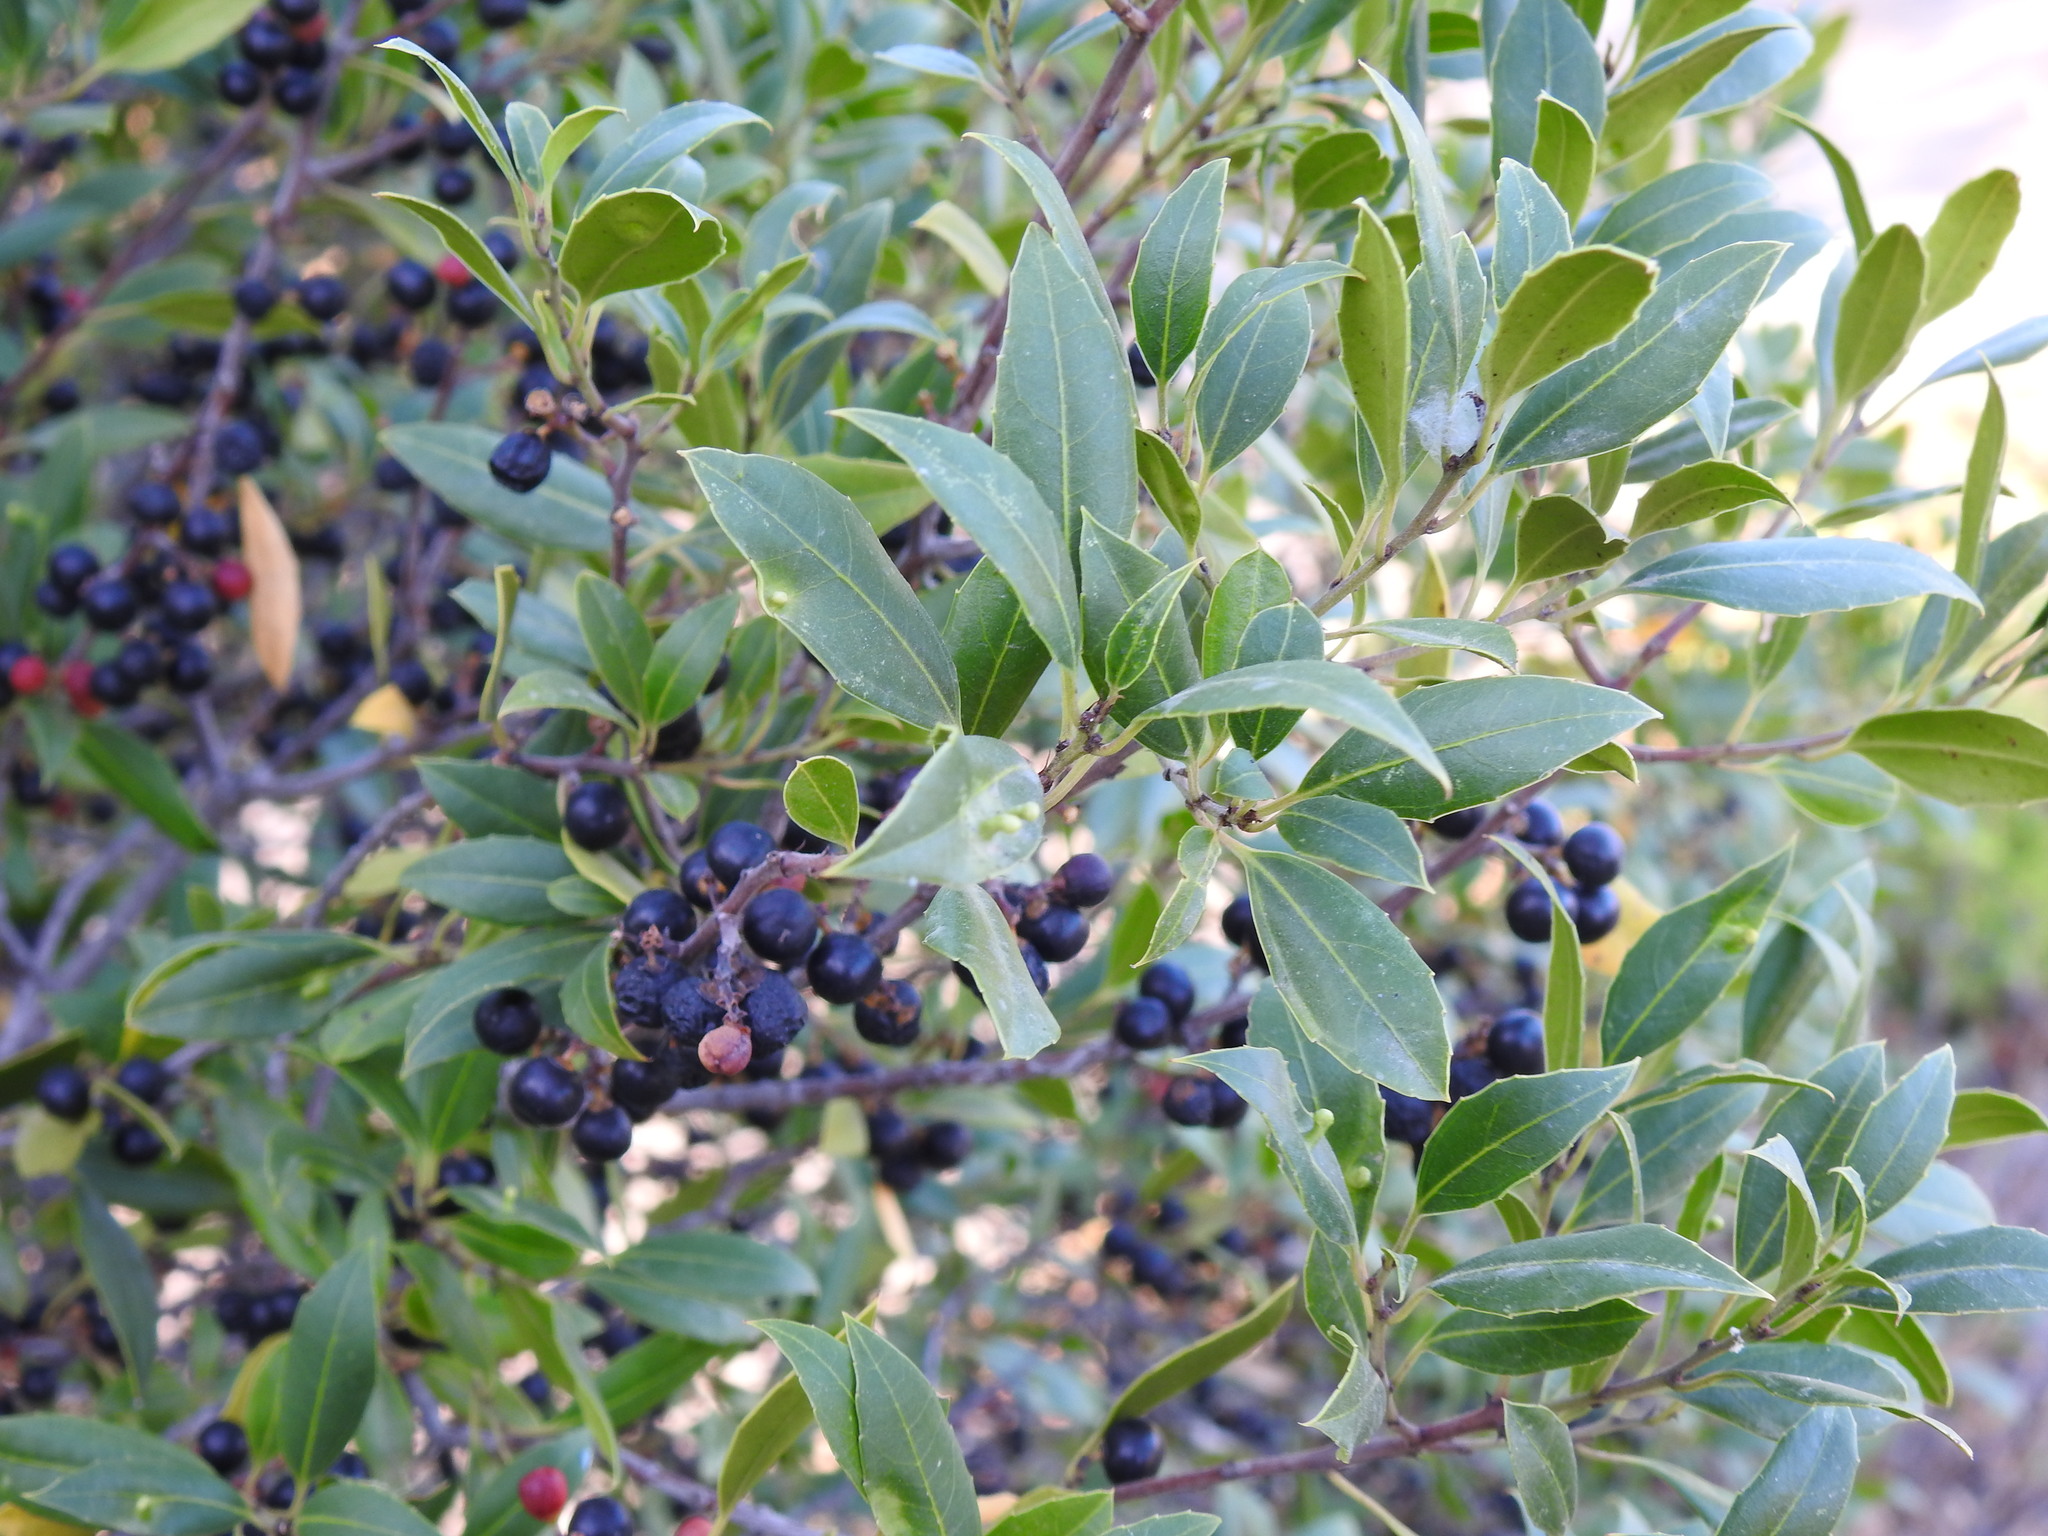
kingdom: Plantae
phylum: Tracheophyta
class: Magnoliopsida
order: Rosales
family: Rhamnaceae
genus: Rhamnus
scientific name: Rhamnus alaternus
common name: Mediterranean buckthorn
